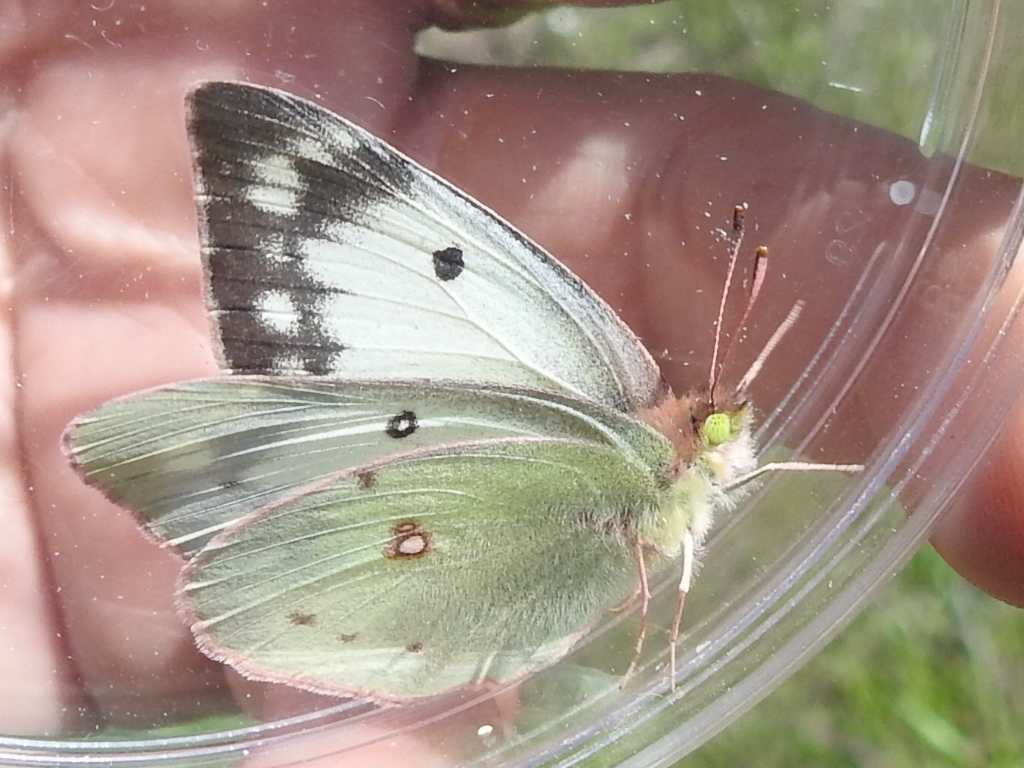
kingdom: Animalia
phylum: Arthropoda
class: Insecta
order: Lepidoptera
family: Pieridae
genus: Colias
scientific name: Colias eurytheme
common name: Alfalfa butterfly
